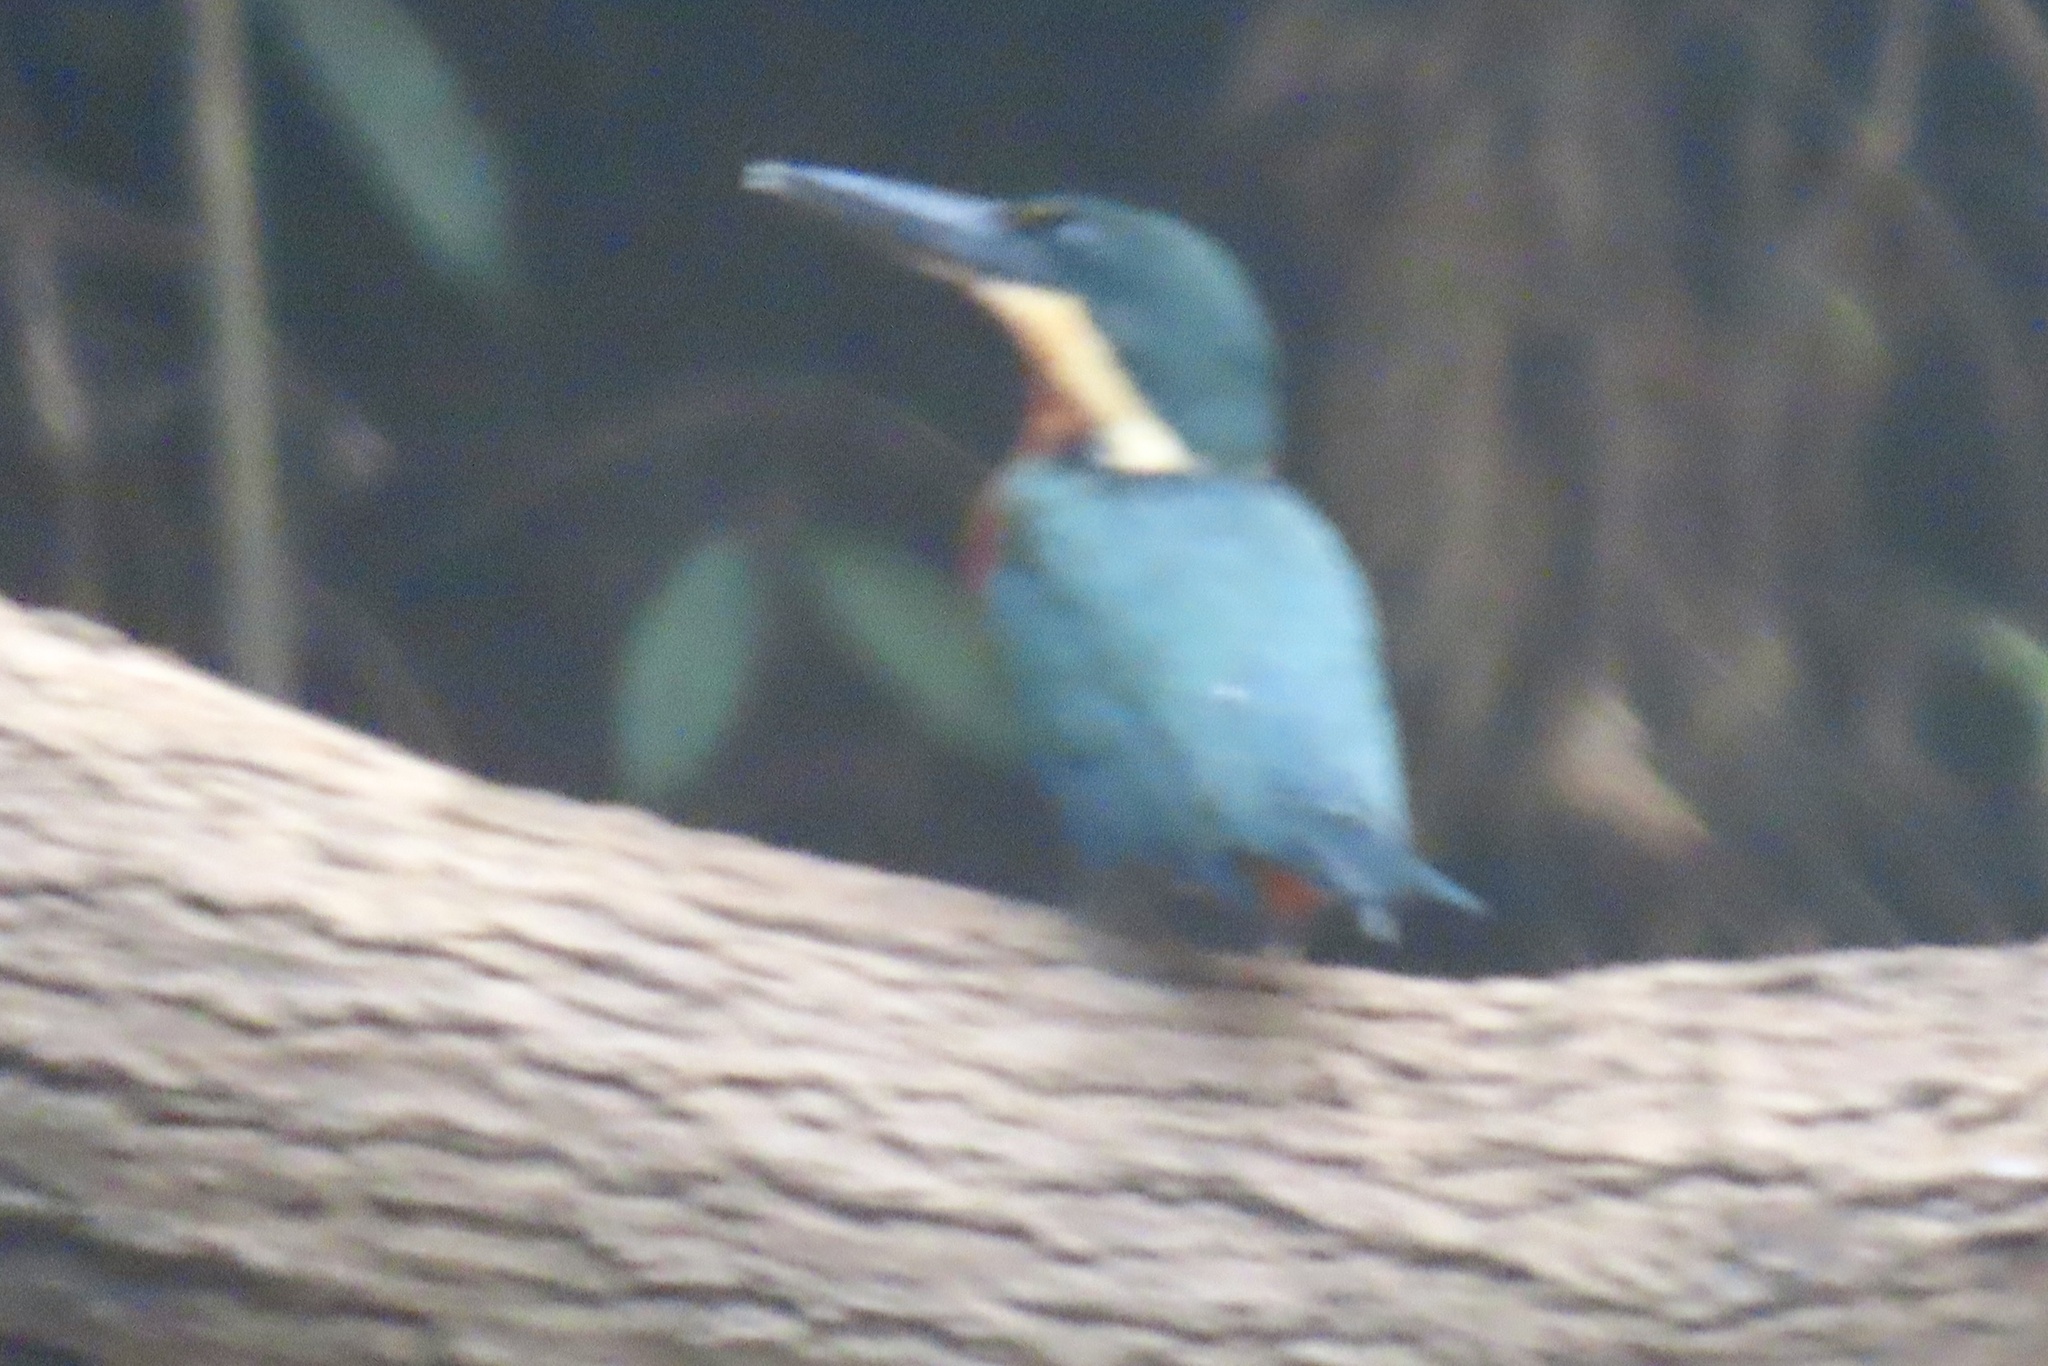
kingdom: Animalia
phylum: Chordata
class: Aves
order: Coraciiformes
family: Alcedinidae
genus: Chloroceryle
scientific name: Chloroceryle inda
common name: Green-and-rufous kingfisher
